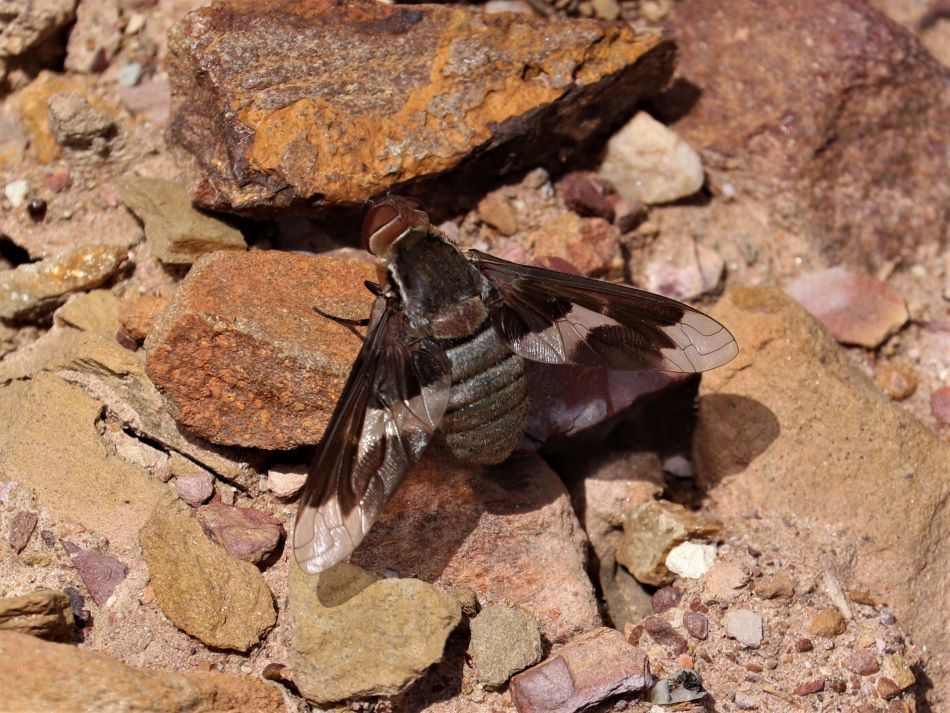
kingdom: Animalia
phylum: Arthropoda
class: Insecta
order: Diptera
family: Bombyliidae
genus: Exoprosopa
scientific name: Exoprosopa strenua
